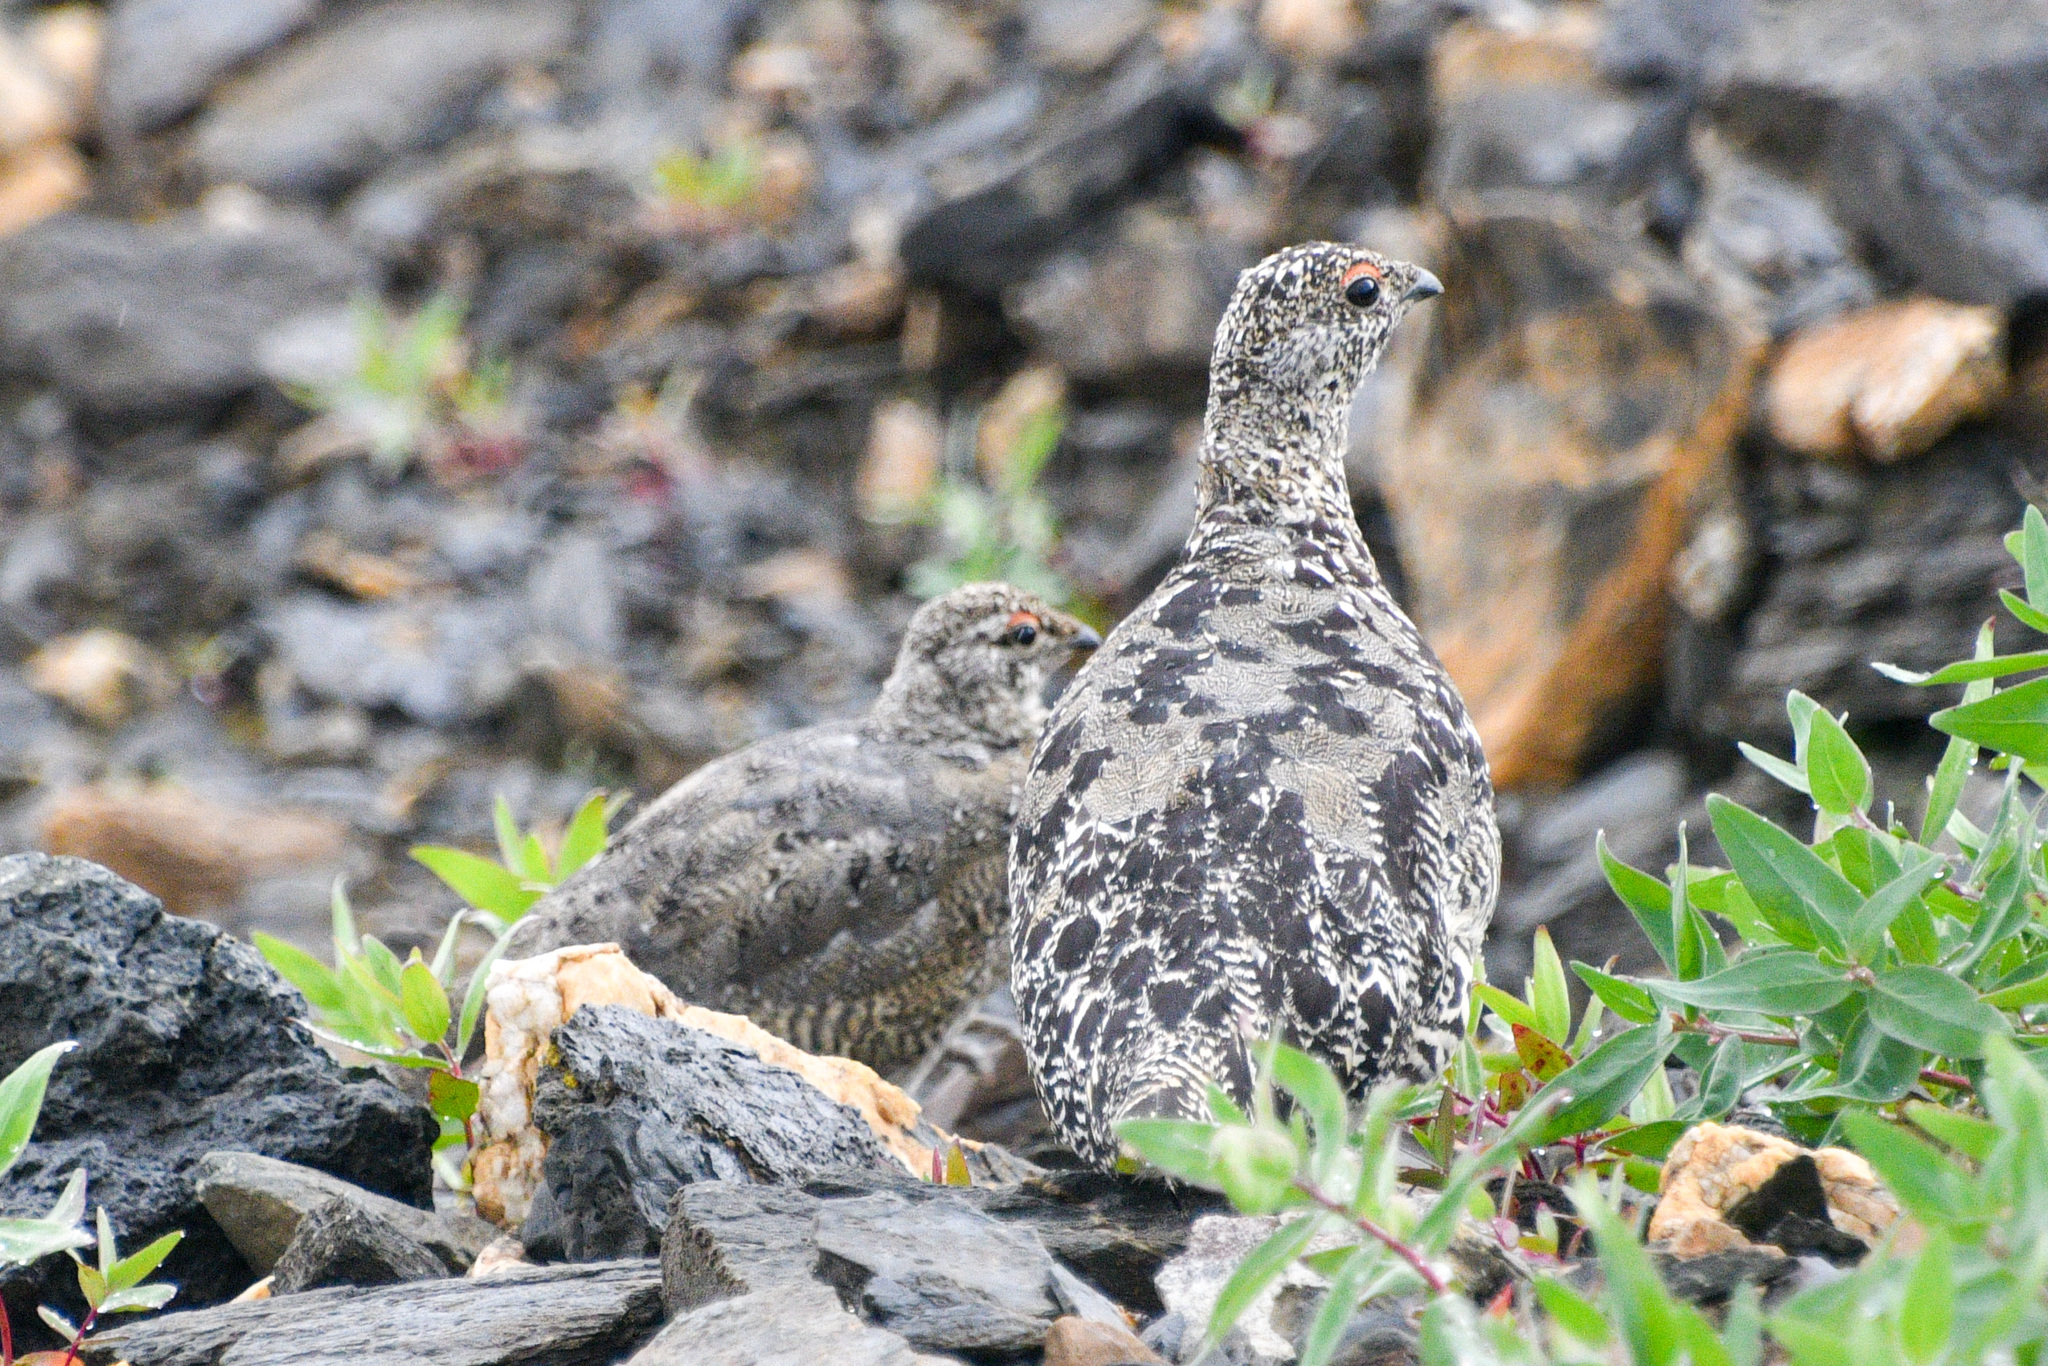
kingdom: Animalia
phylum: Chordata
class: Aves
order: Galliformes
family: Phasianidae
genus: Lagopus
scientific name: Lagopus leucura
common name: White-tailed ptarmigan
